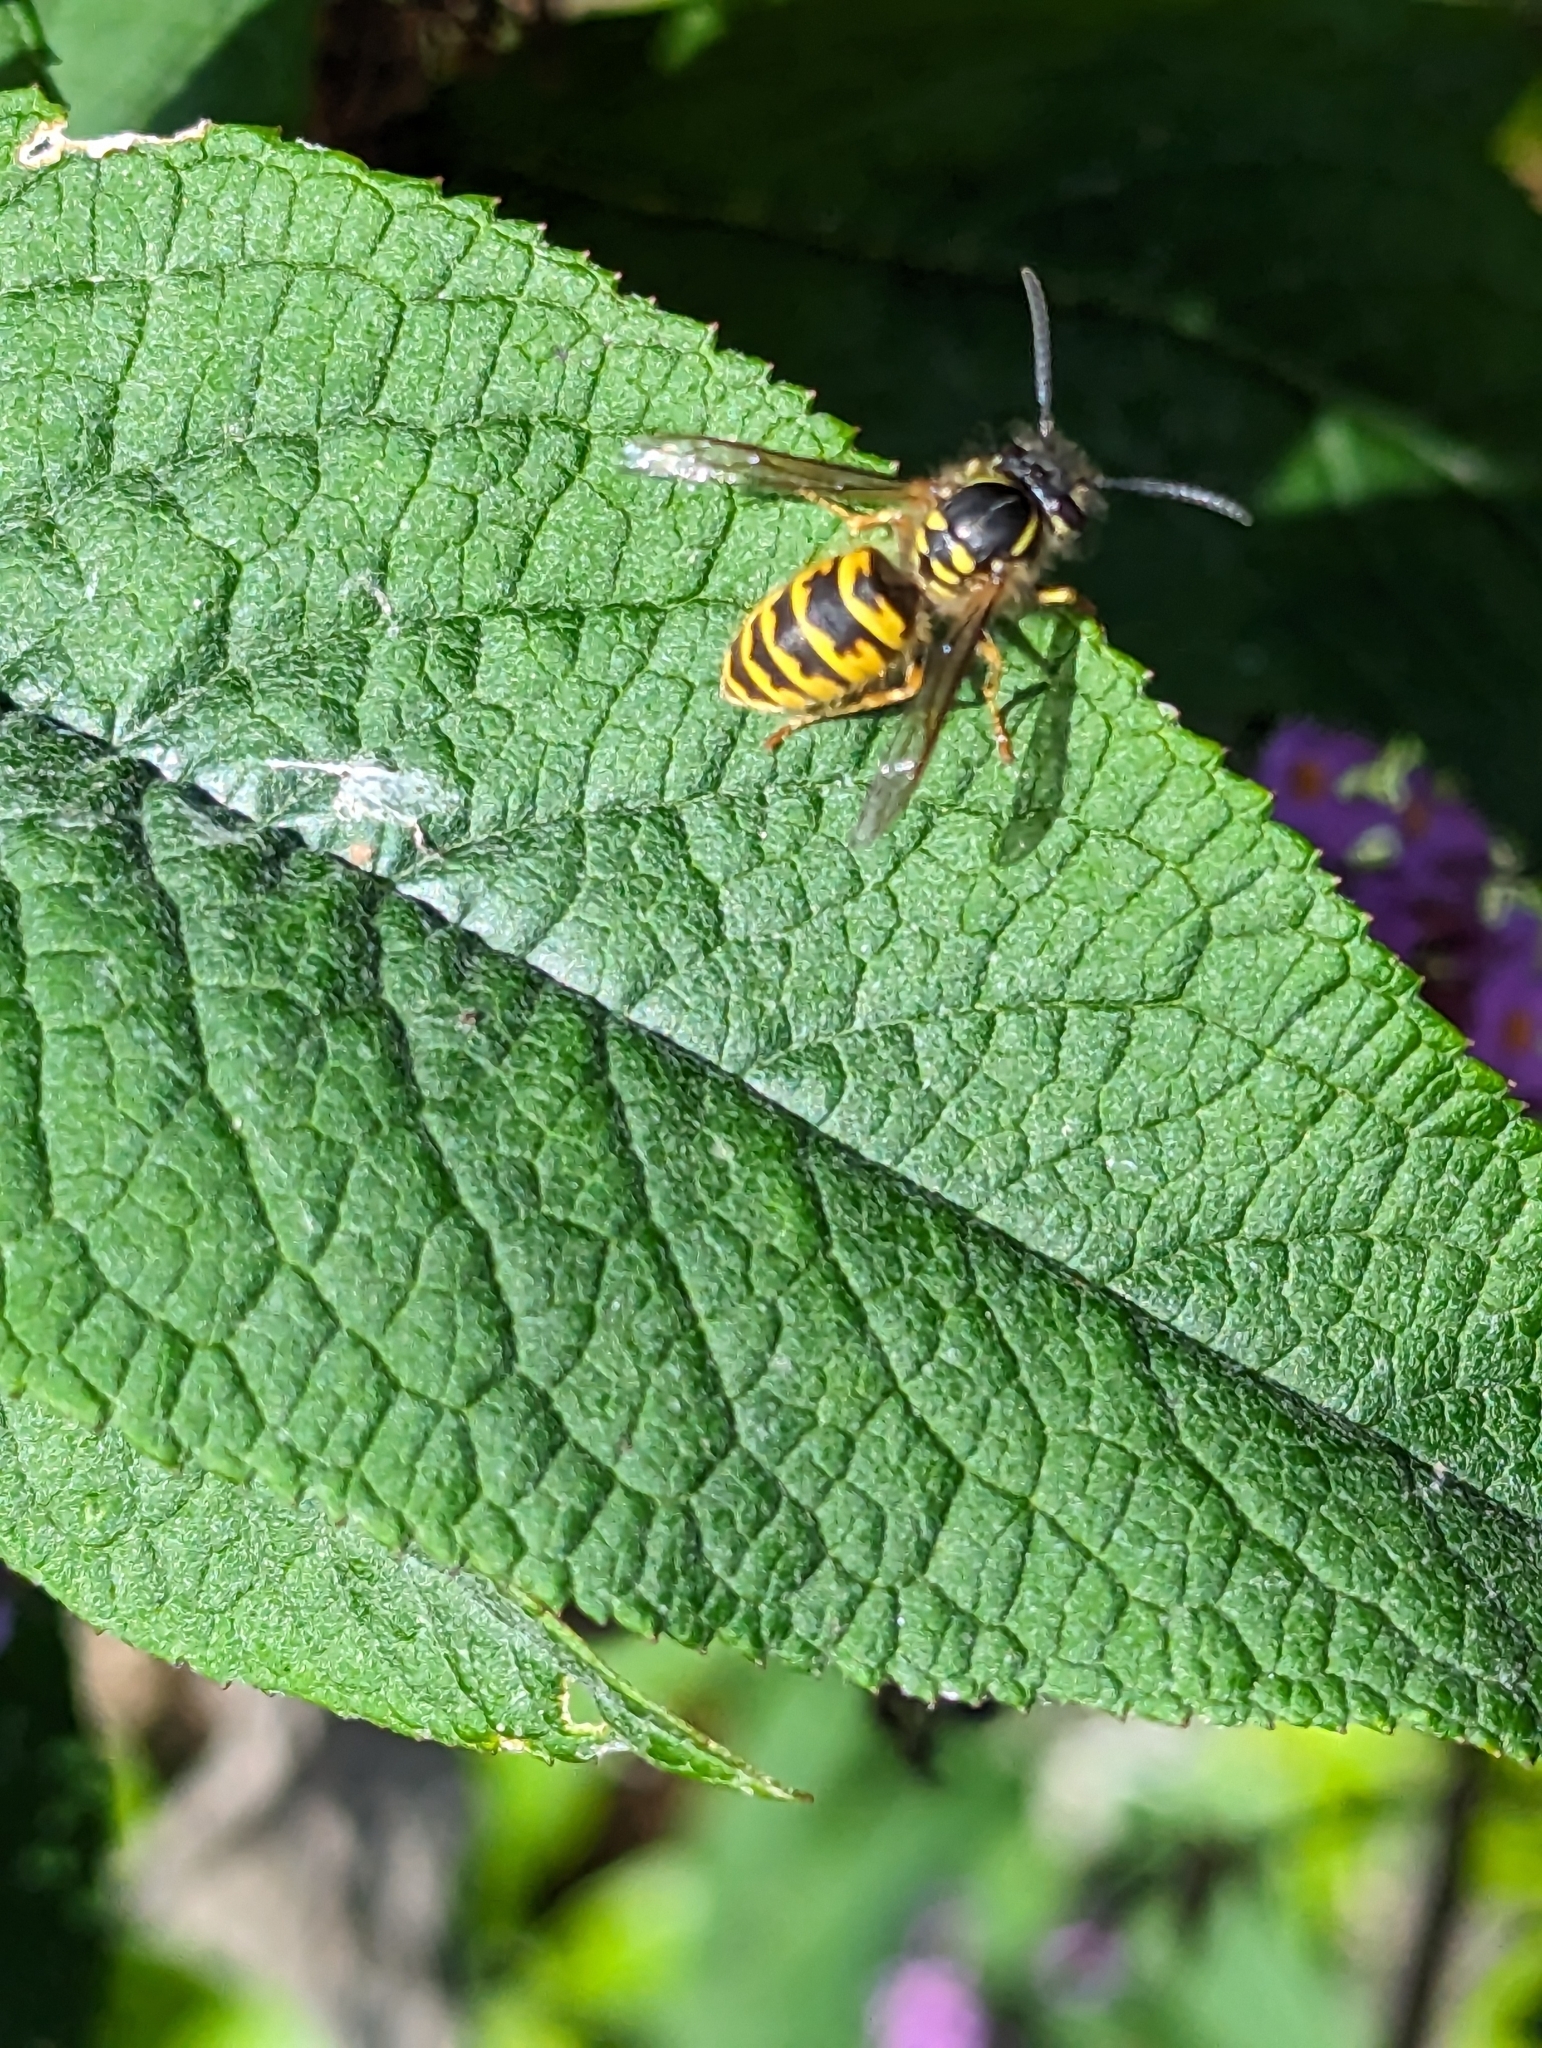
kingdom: Animalia
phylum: Arthropoda
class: Insecta
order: Hymenoptera
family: Vespidae
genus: Vespula
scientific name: Vespula vulgaris
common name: Common wasp
